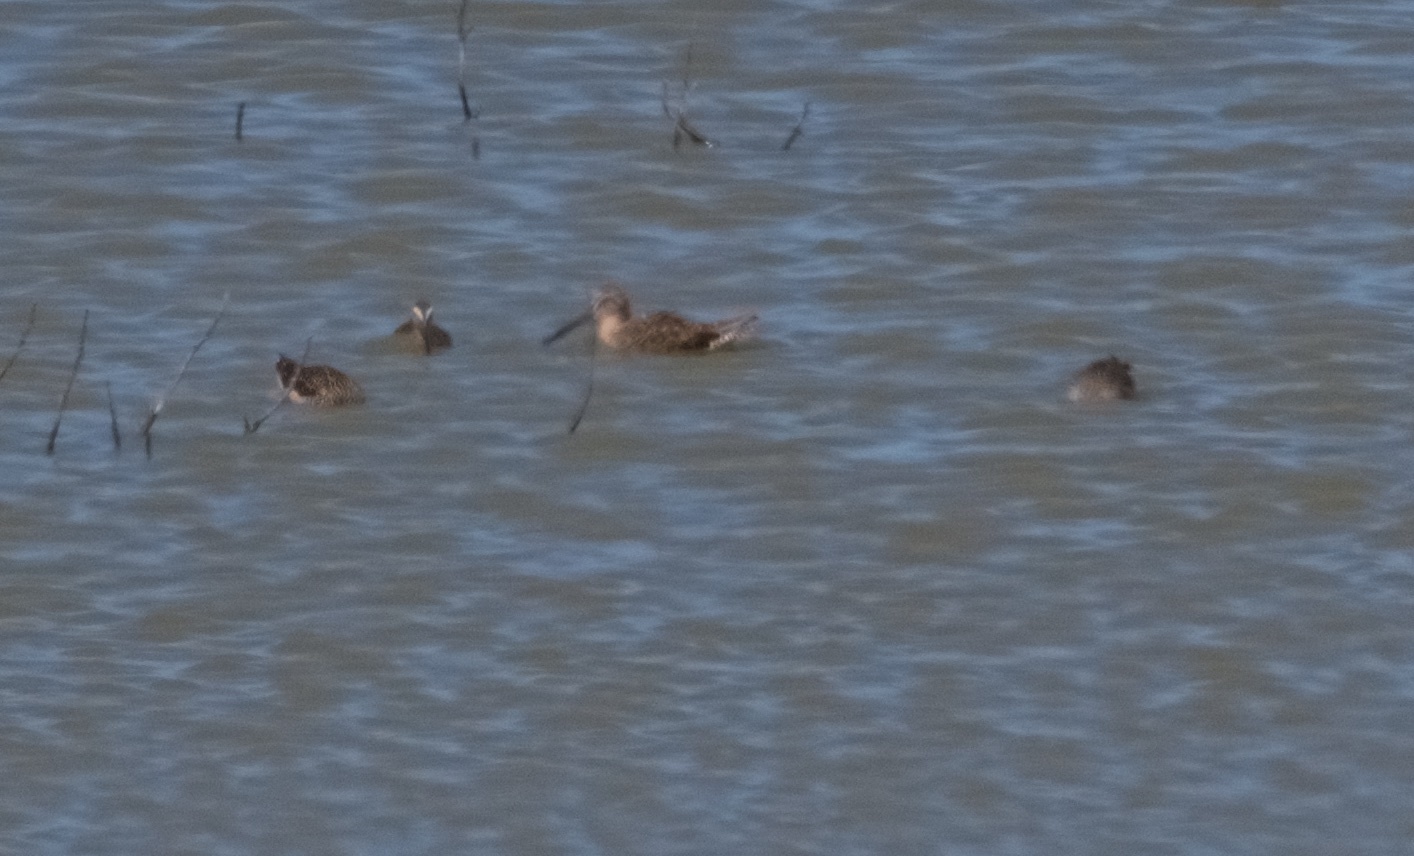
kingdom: Animalia
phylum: Chordata
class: Aves
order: Charadriiformes
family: Scolopacidae
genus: Limnodromus
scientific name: Limnodromus scolopaceus
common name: Long-billed dowitcher
